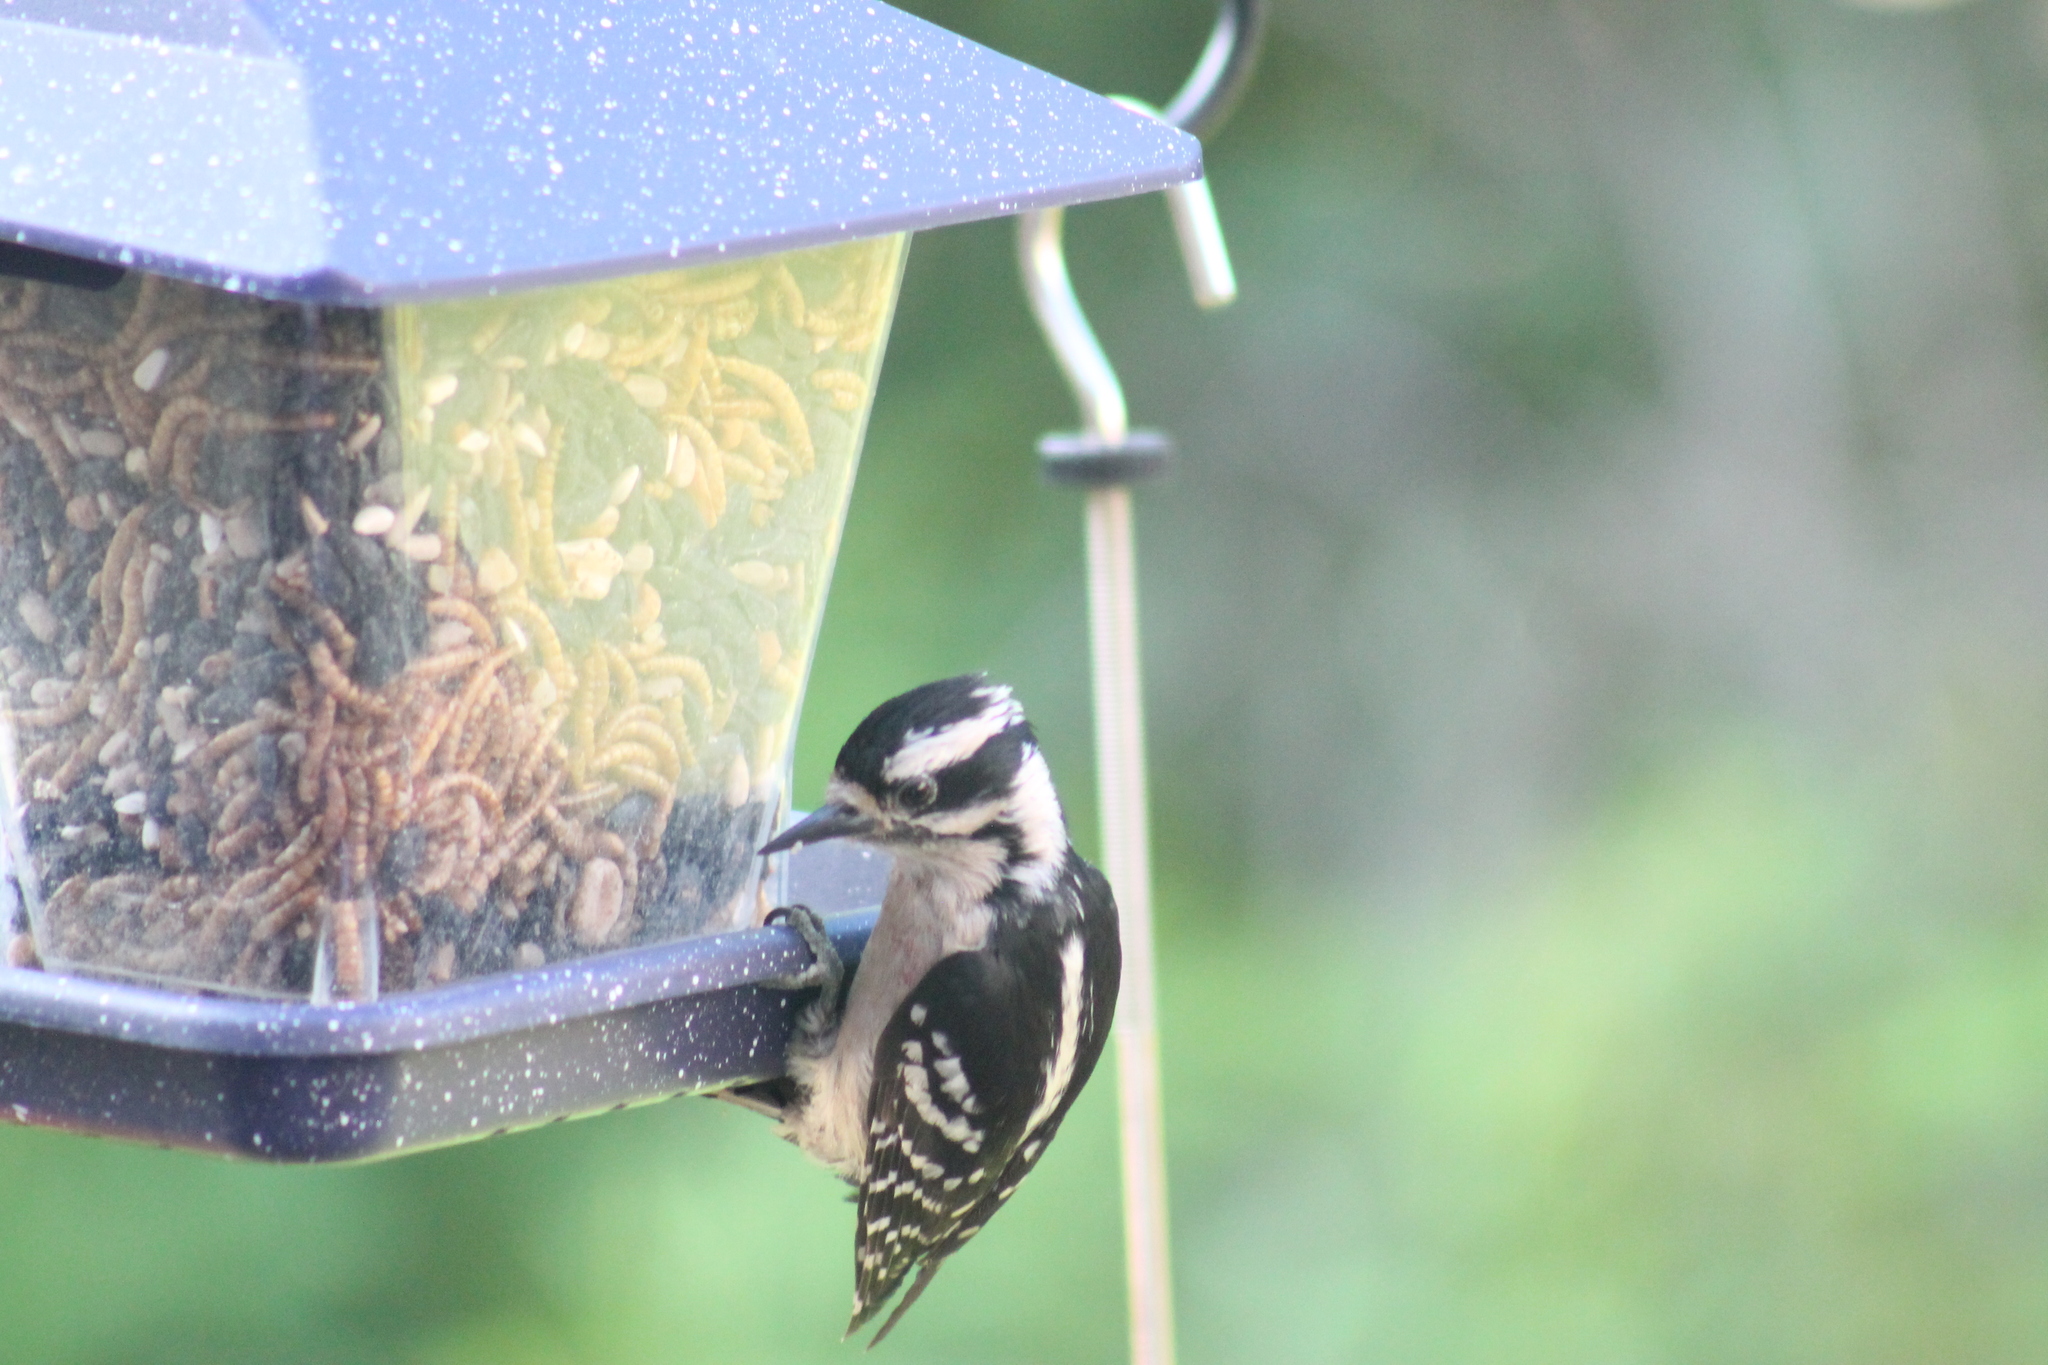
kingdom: Animalia
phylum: Chordata
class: Aves
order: Piciformes
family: Picidae
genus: Dryobates
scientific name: Dryobates pubescens
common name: Downy woodpecker
